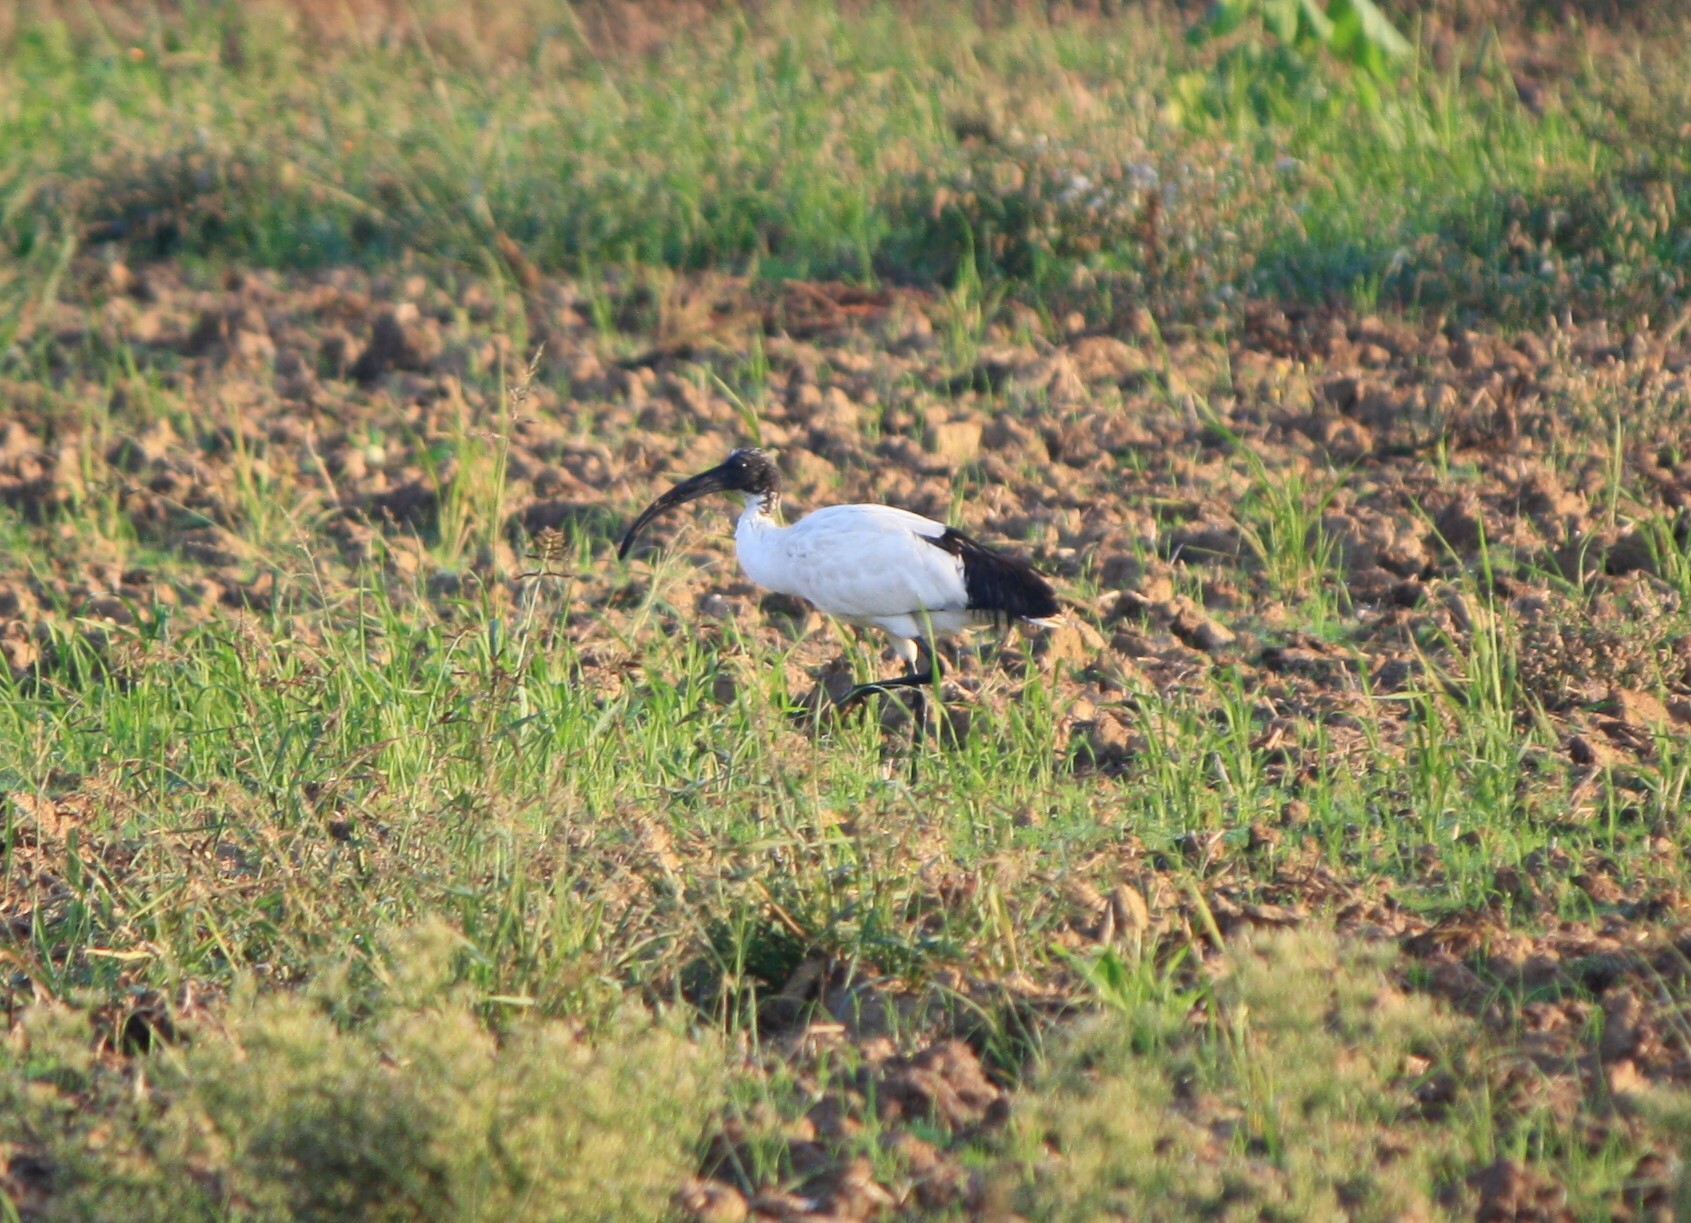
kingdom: Animalia
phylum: Chordata
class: Aves
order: Pelecaniformes
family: Threskiornithidae
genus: Threskiornis
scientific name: Threskiornis aethiopicus
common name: Sacred ibis
